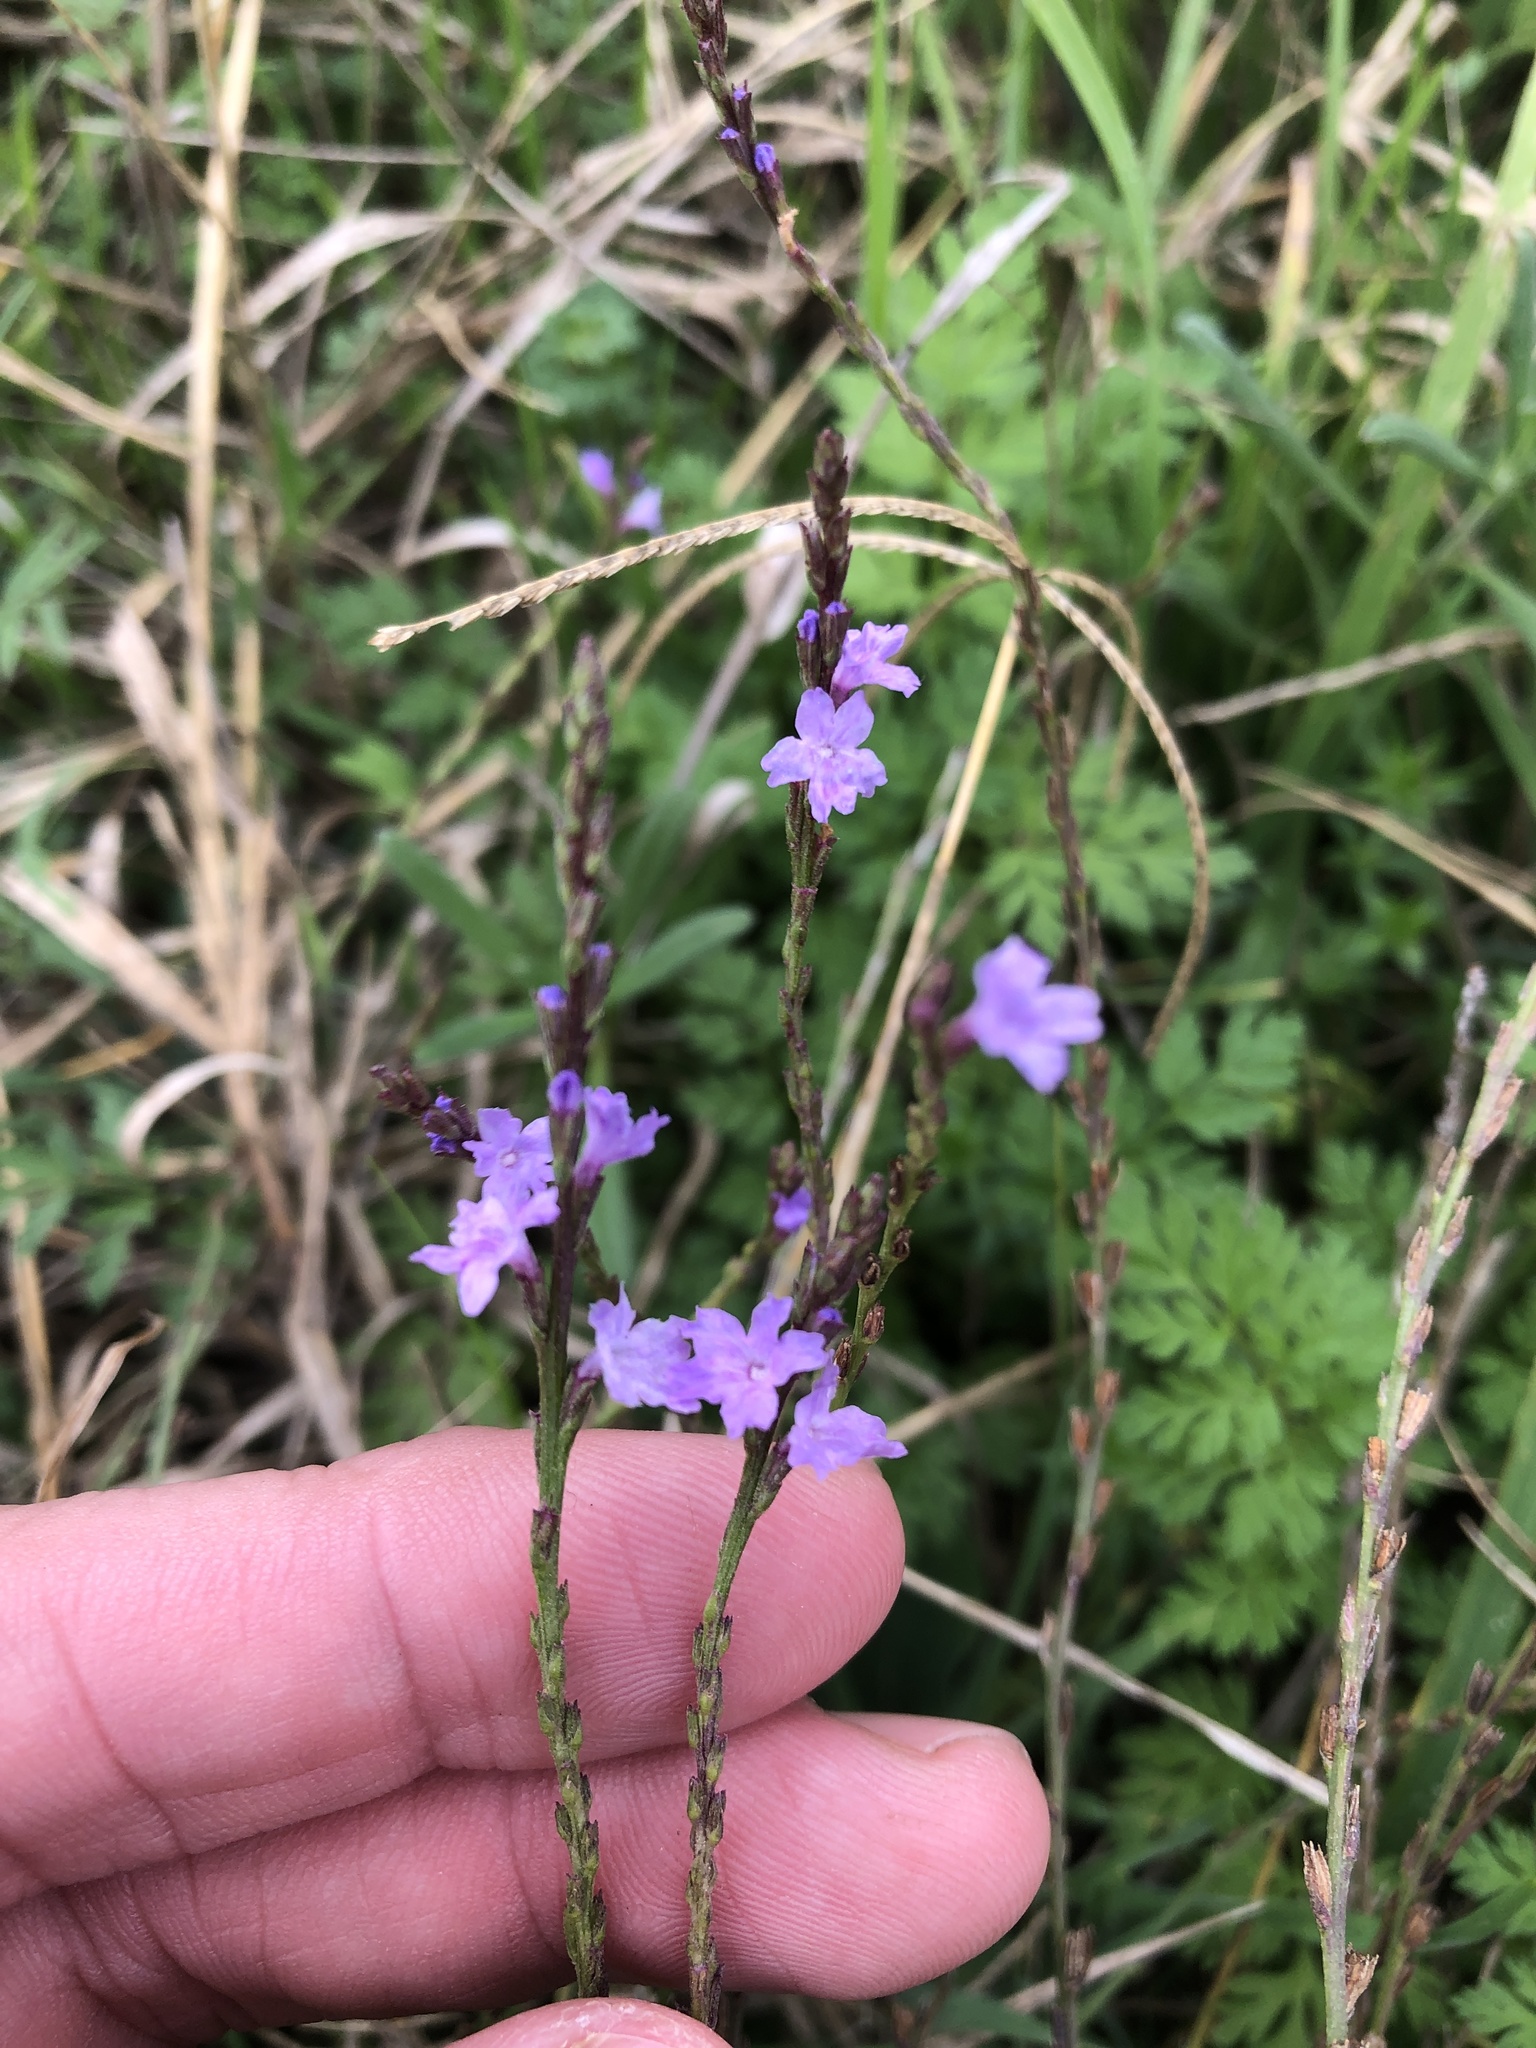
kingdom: Plantae
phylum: Tracheophyta
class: Magnoliopsida
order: Lamiales
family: Verbenaceae
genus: Verbena
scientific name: Verbena halei
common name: Texas vervain
